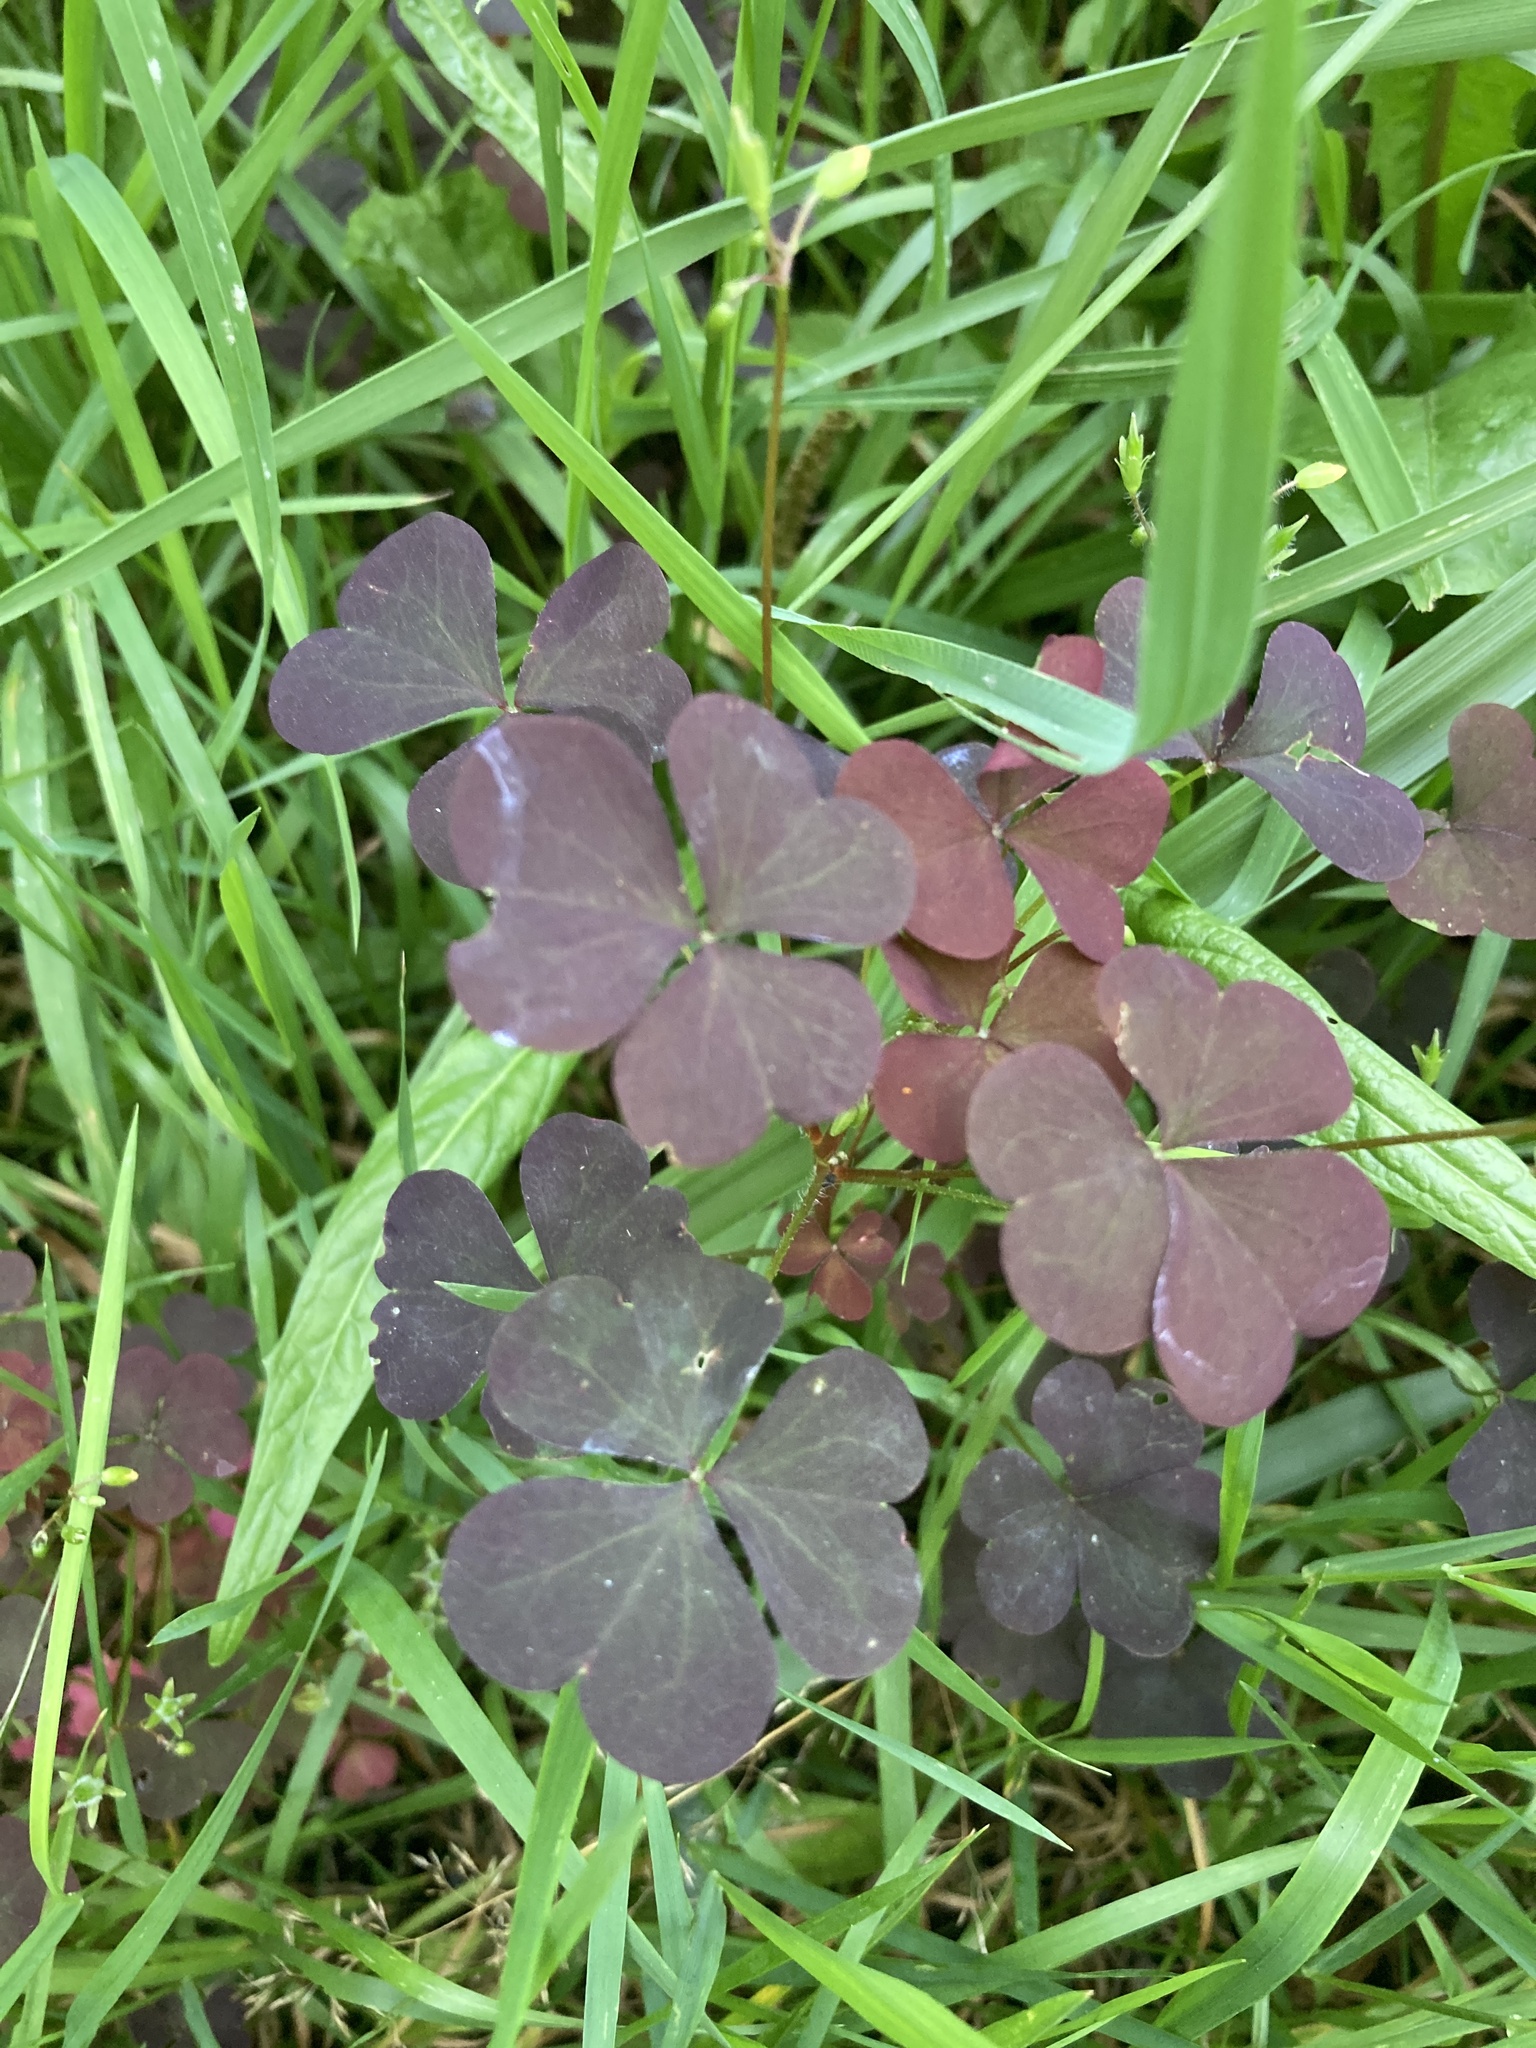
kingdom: Plantae
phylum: Tracheophyta
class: Magnoliopsida
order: Oxalidales
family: Oxalidaceae
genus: Oxalis
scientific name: Oxalis stricta
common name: Upright yellow-sorrel
